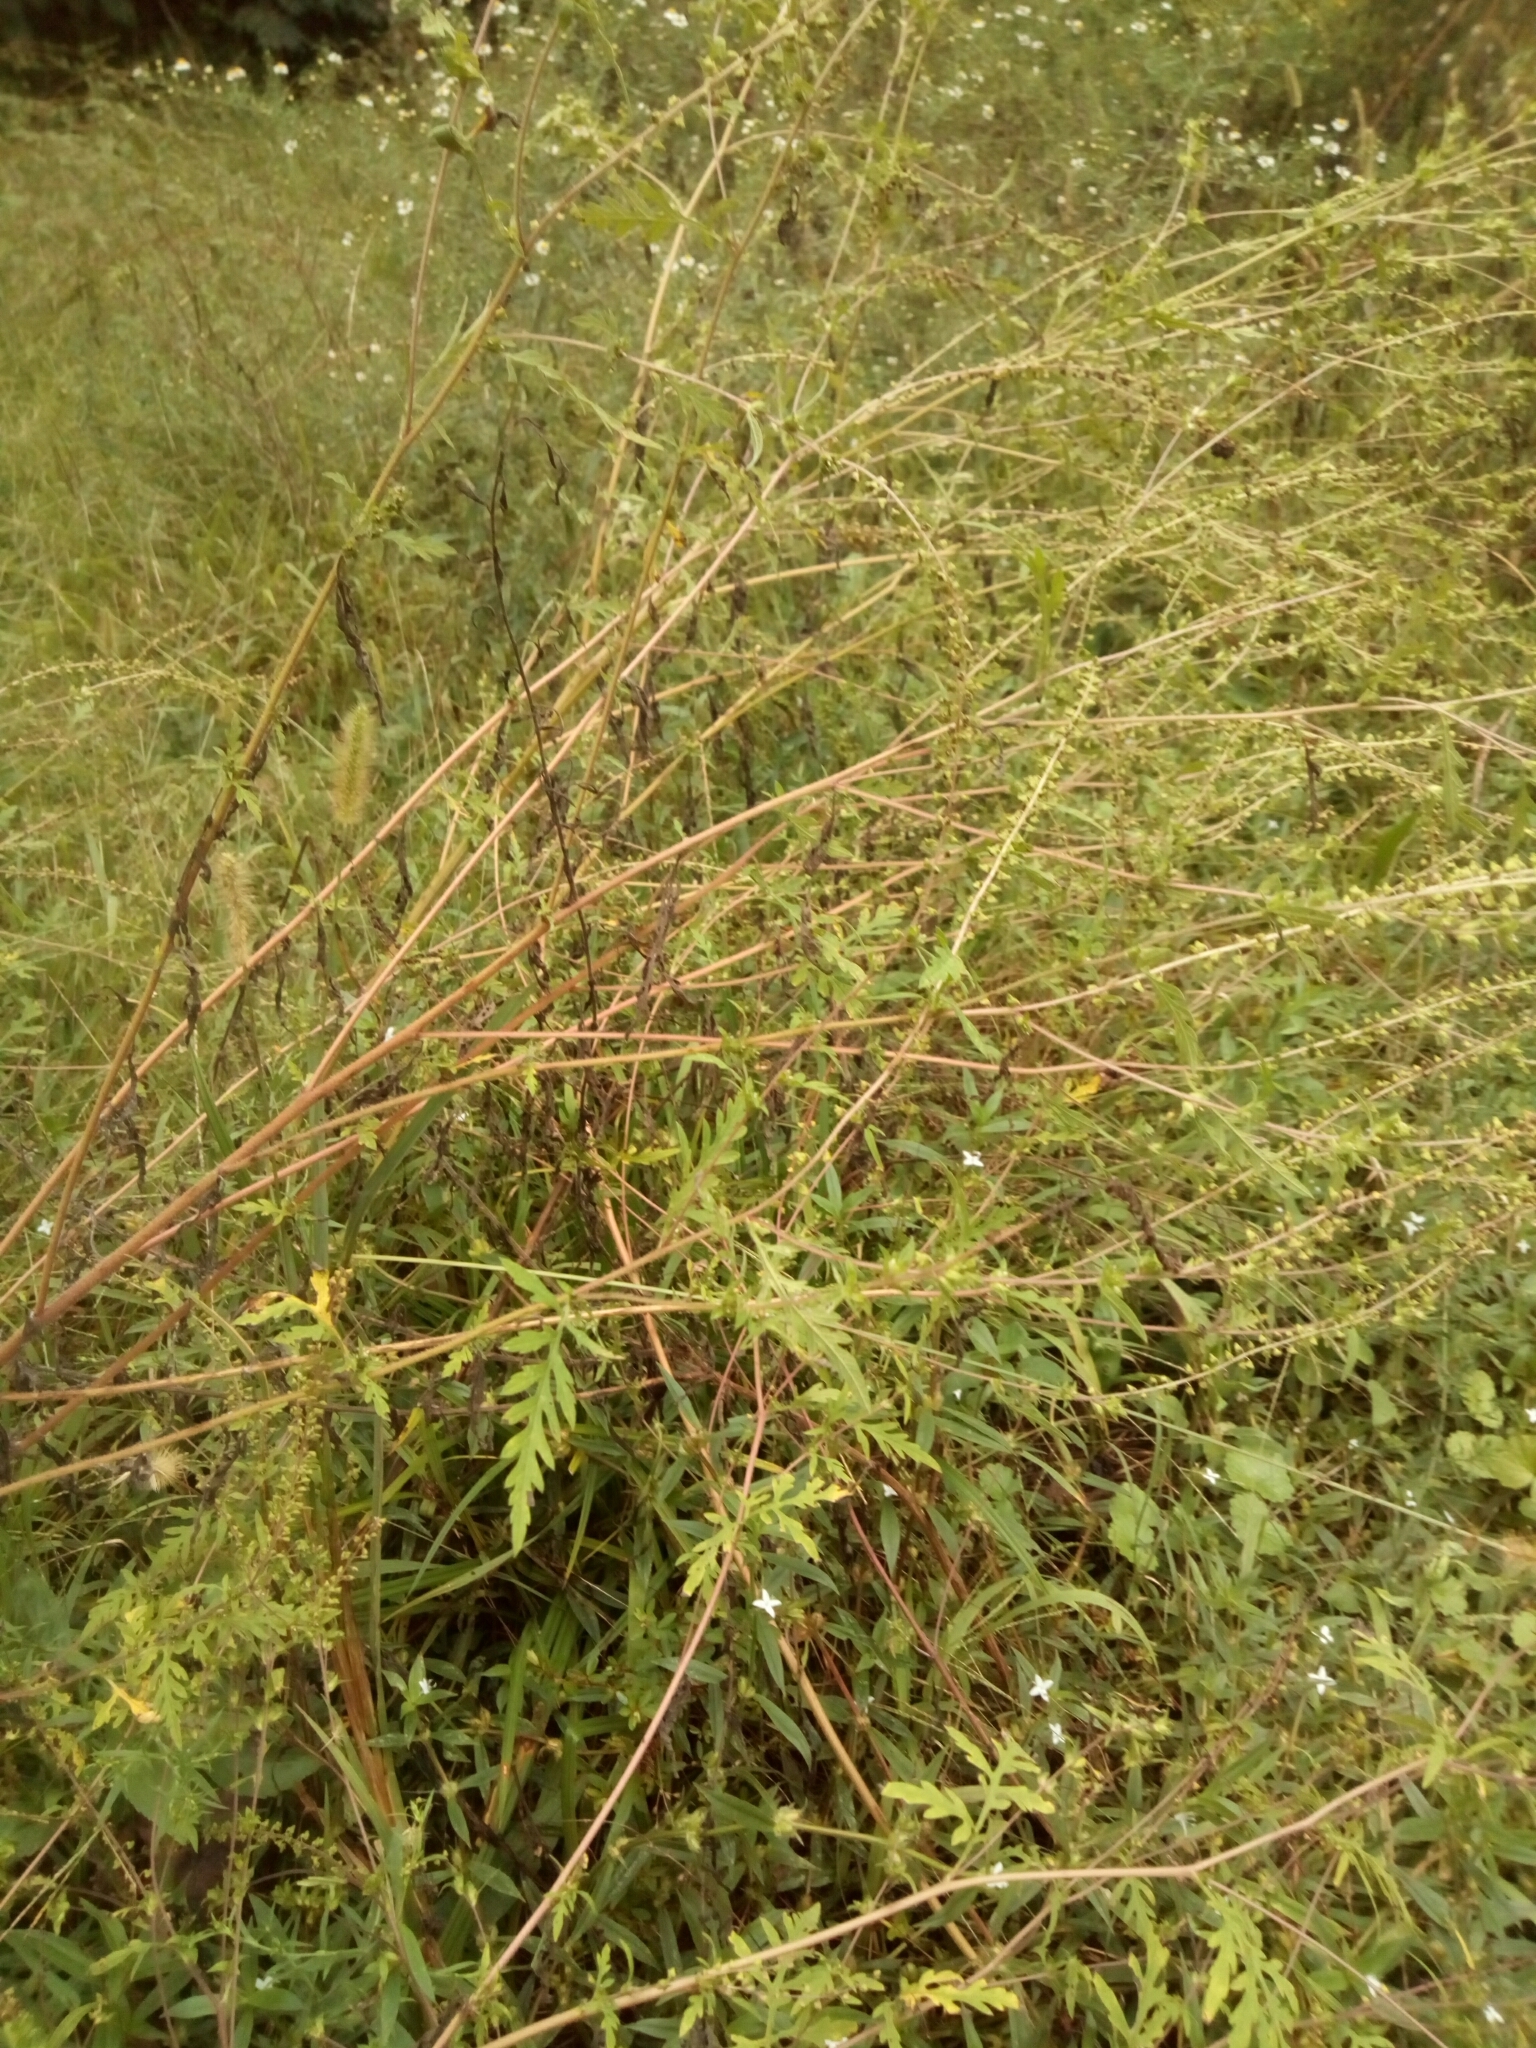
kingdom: Plantae
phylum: Tracheophyta
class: Magnoliopsida
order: Asterales
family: Asteraceae
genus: Ambrosia
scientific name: Ambrosia artemisiifolia
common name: Annual ragweed
